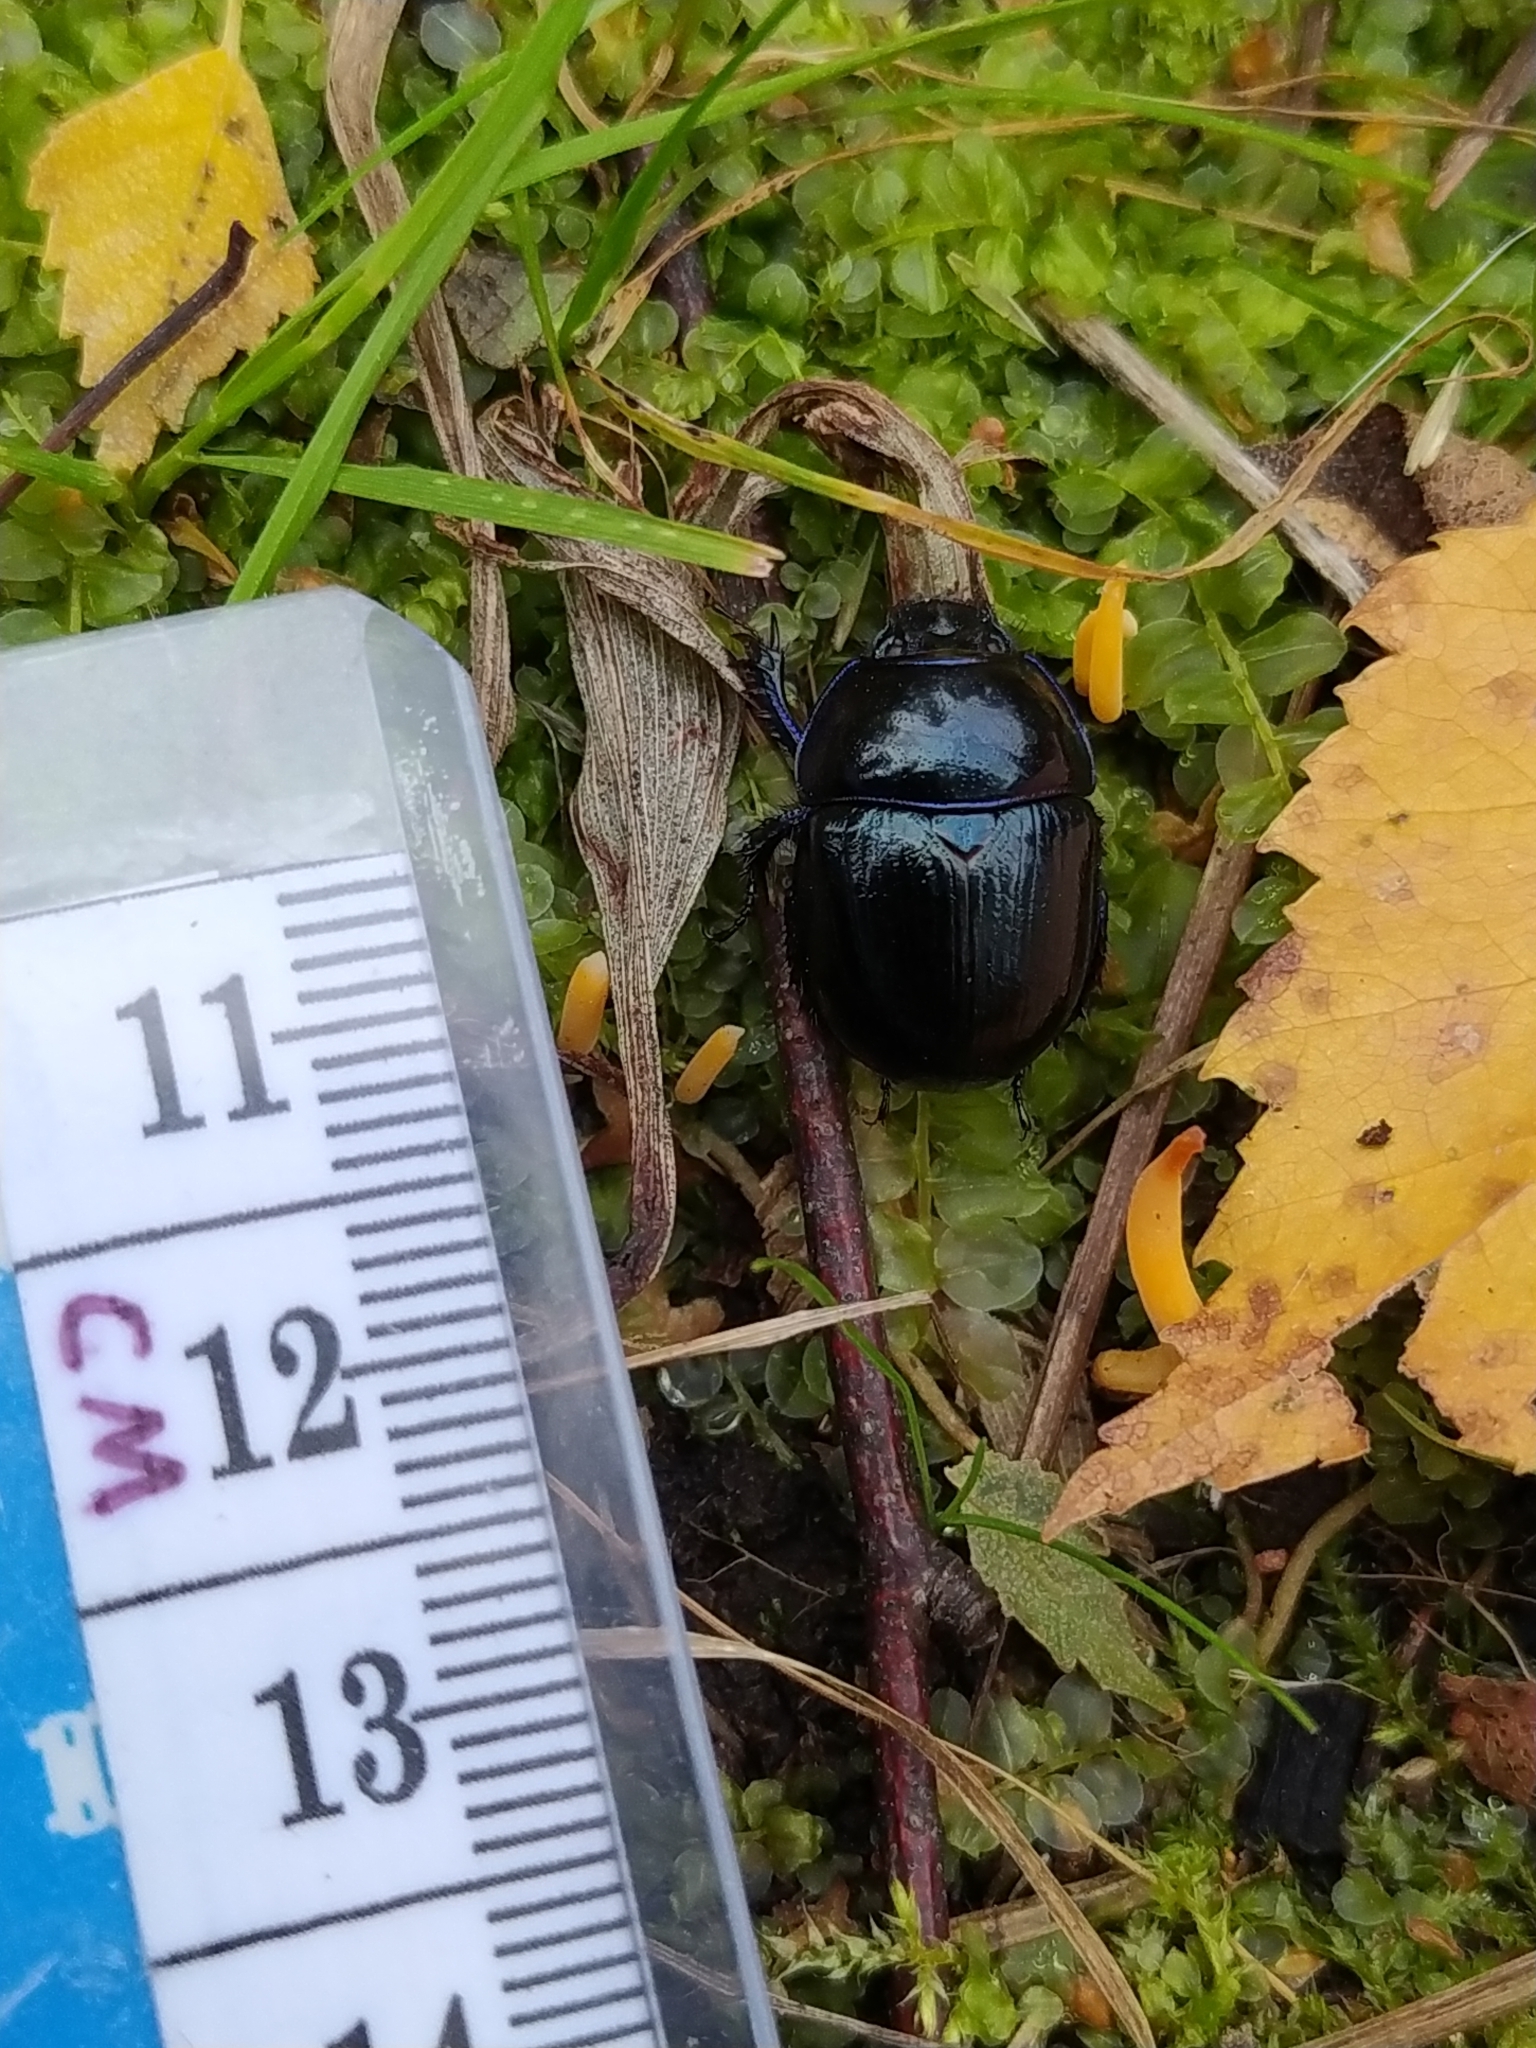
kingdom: Animalia
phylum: Arthropoda
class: Insecta
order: Coleoptera
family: Geotrupidae
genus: Anoplotrupes
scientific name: Anoplotrupes stercorosus
